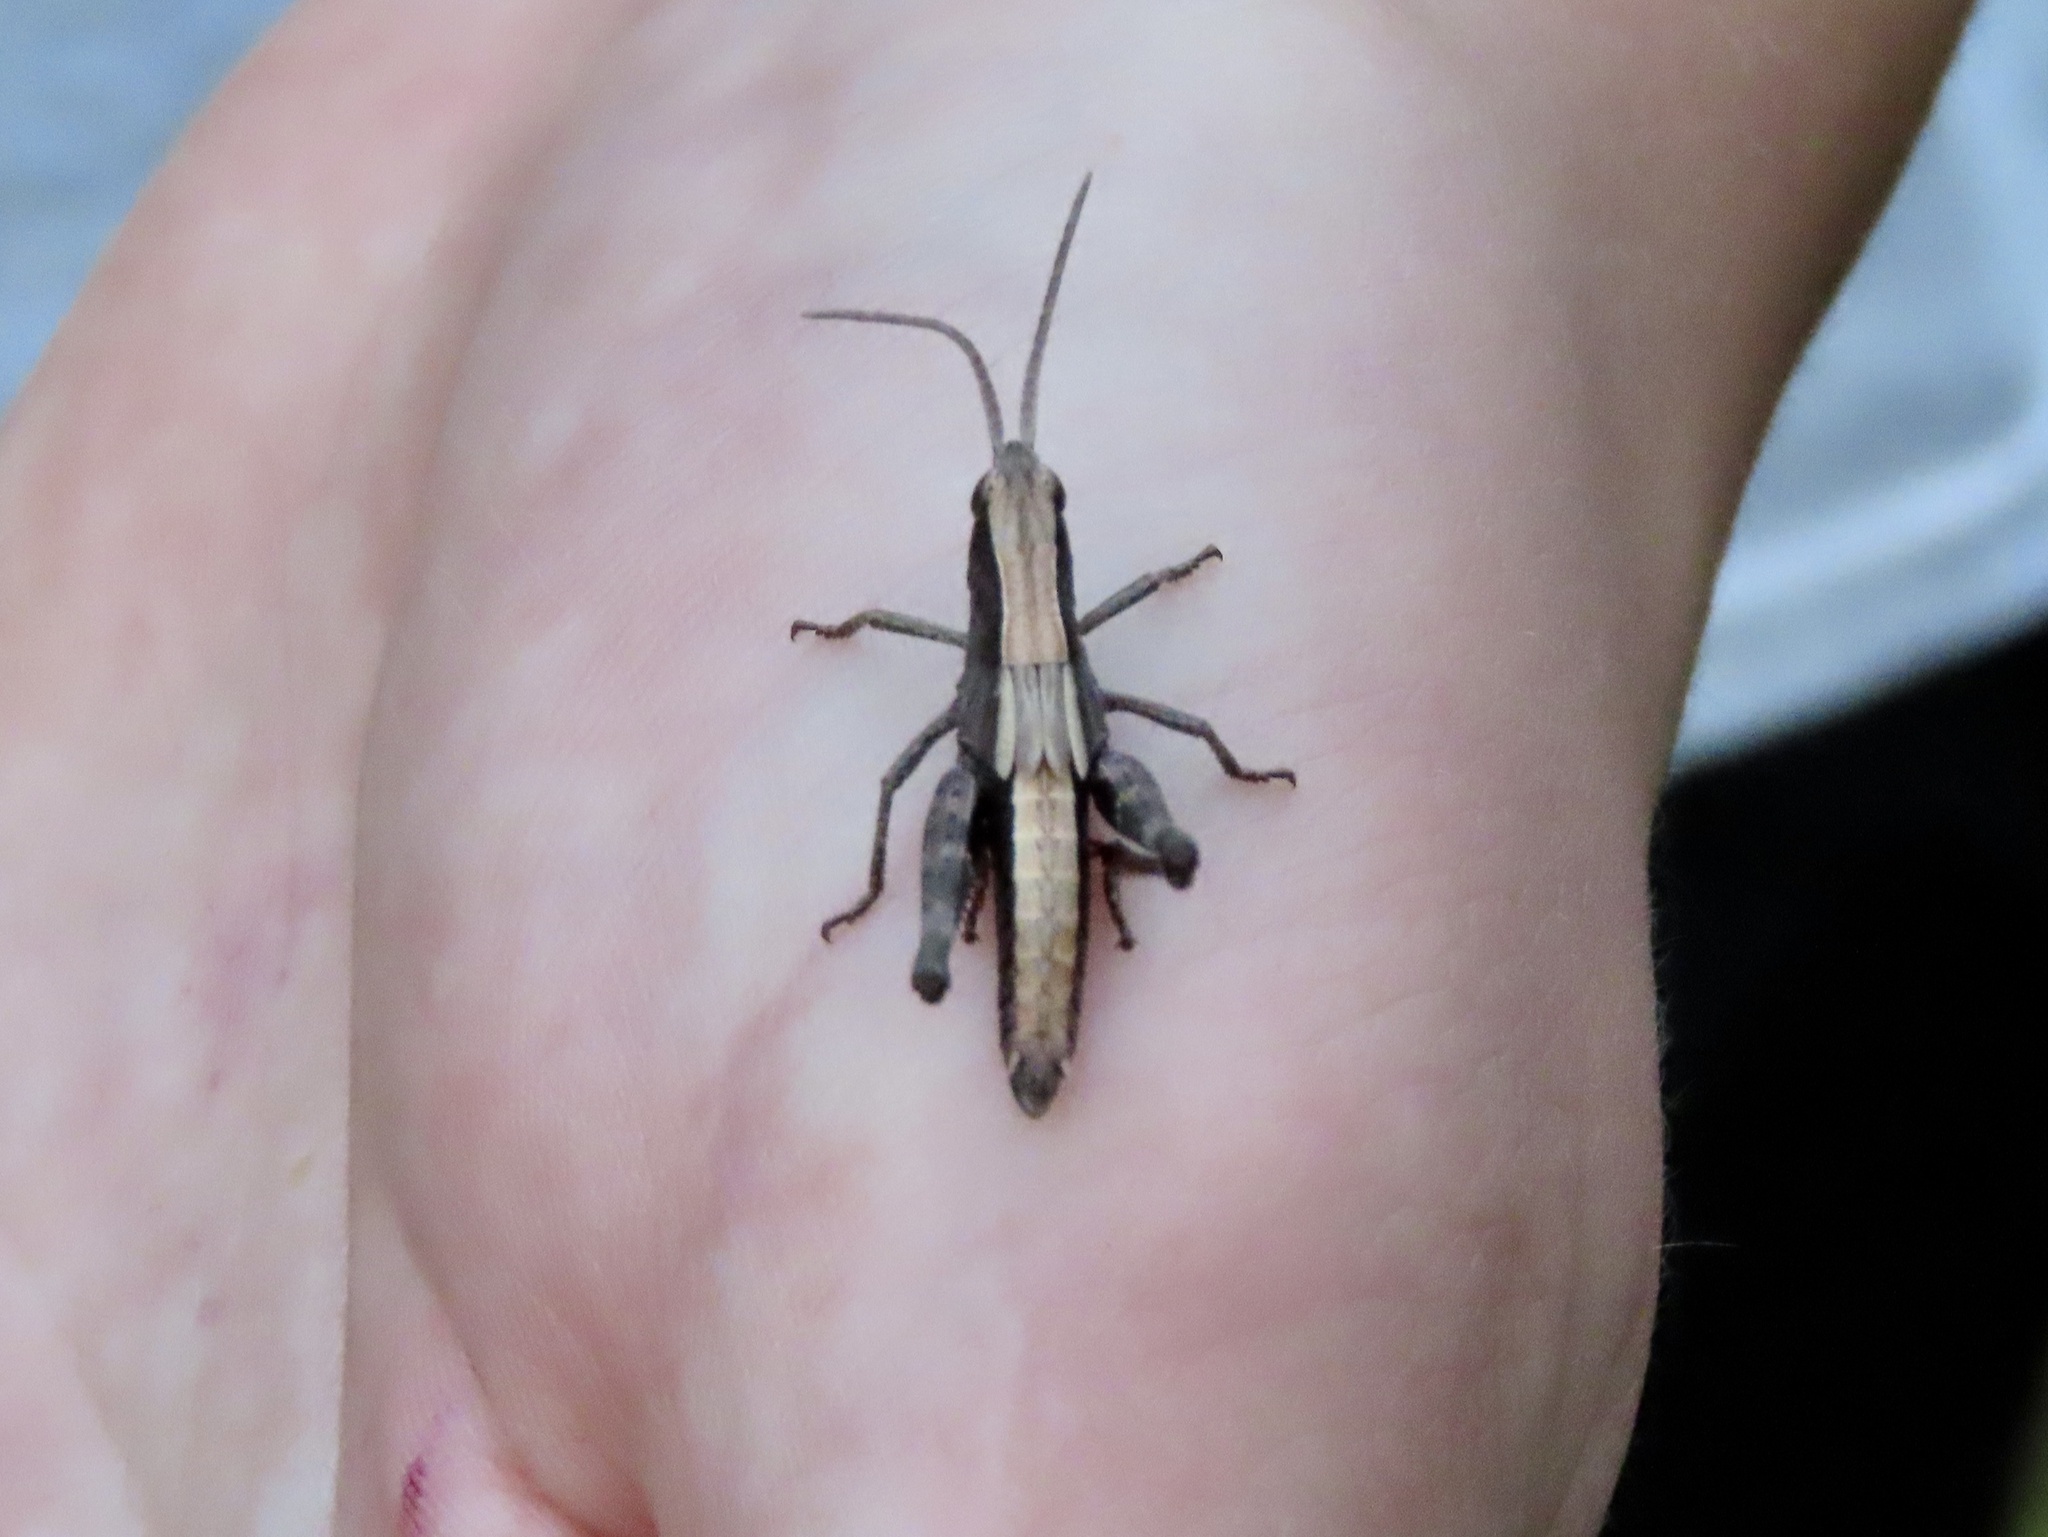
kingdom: Animalia
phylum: Arthropoda
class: Insecta
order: Orthoptera
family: Acrididae
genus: Chloealtis
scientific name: Chloealtis conspersa
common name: Sprinkled broad-winged grasshopper
